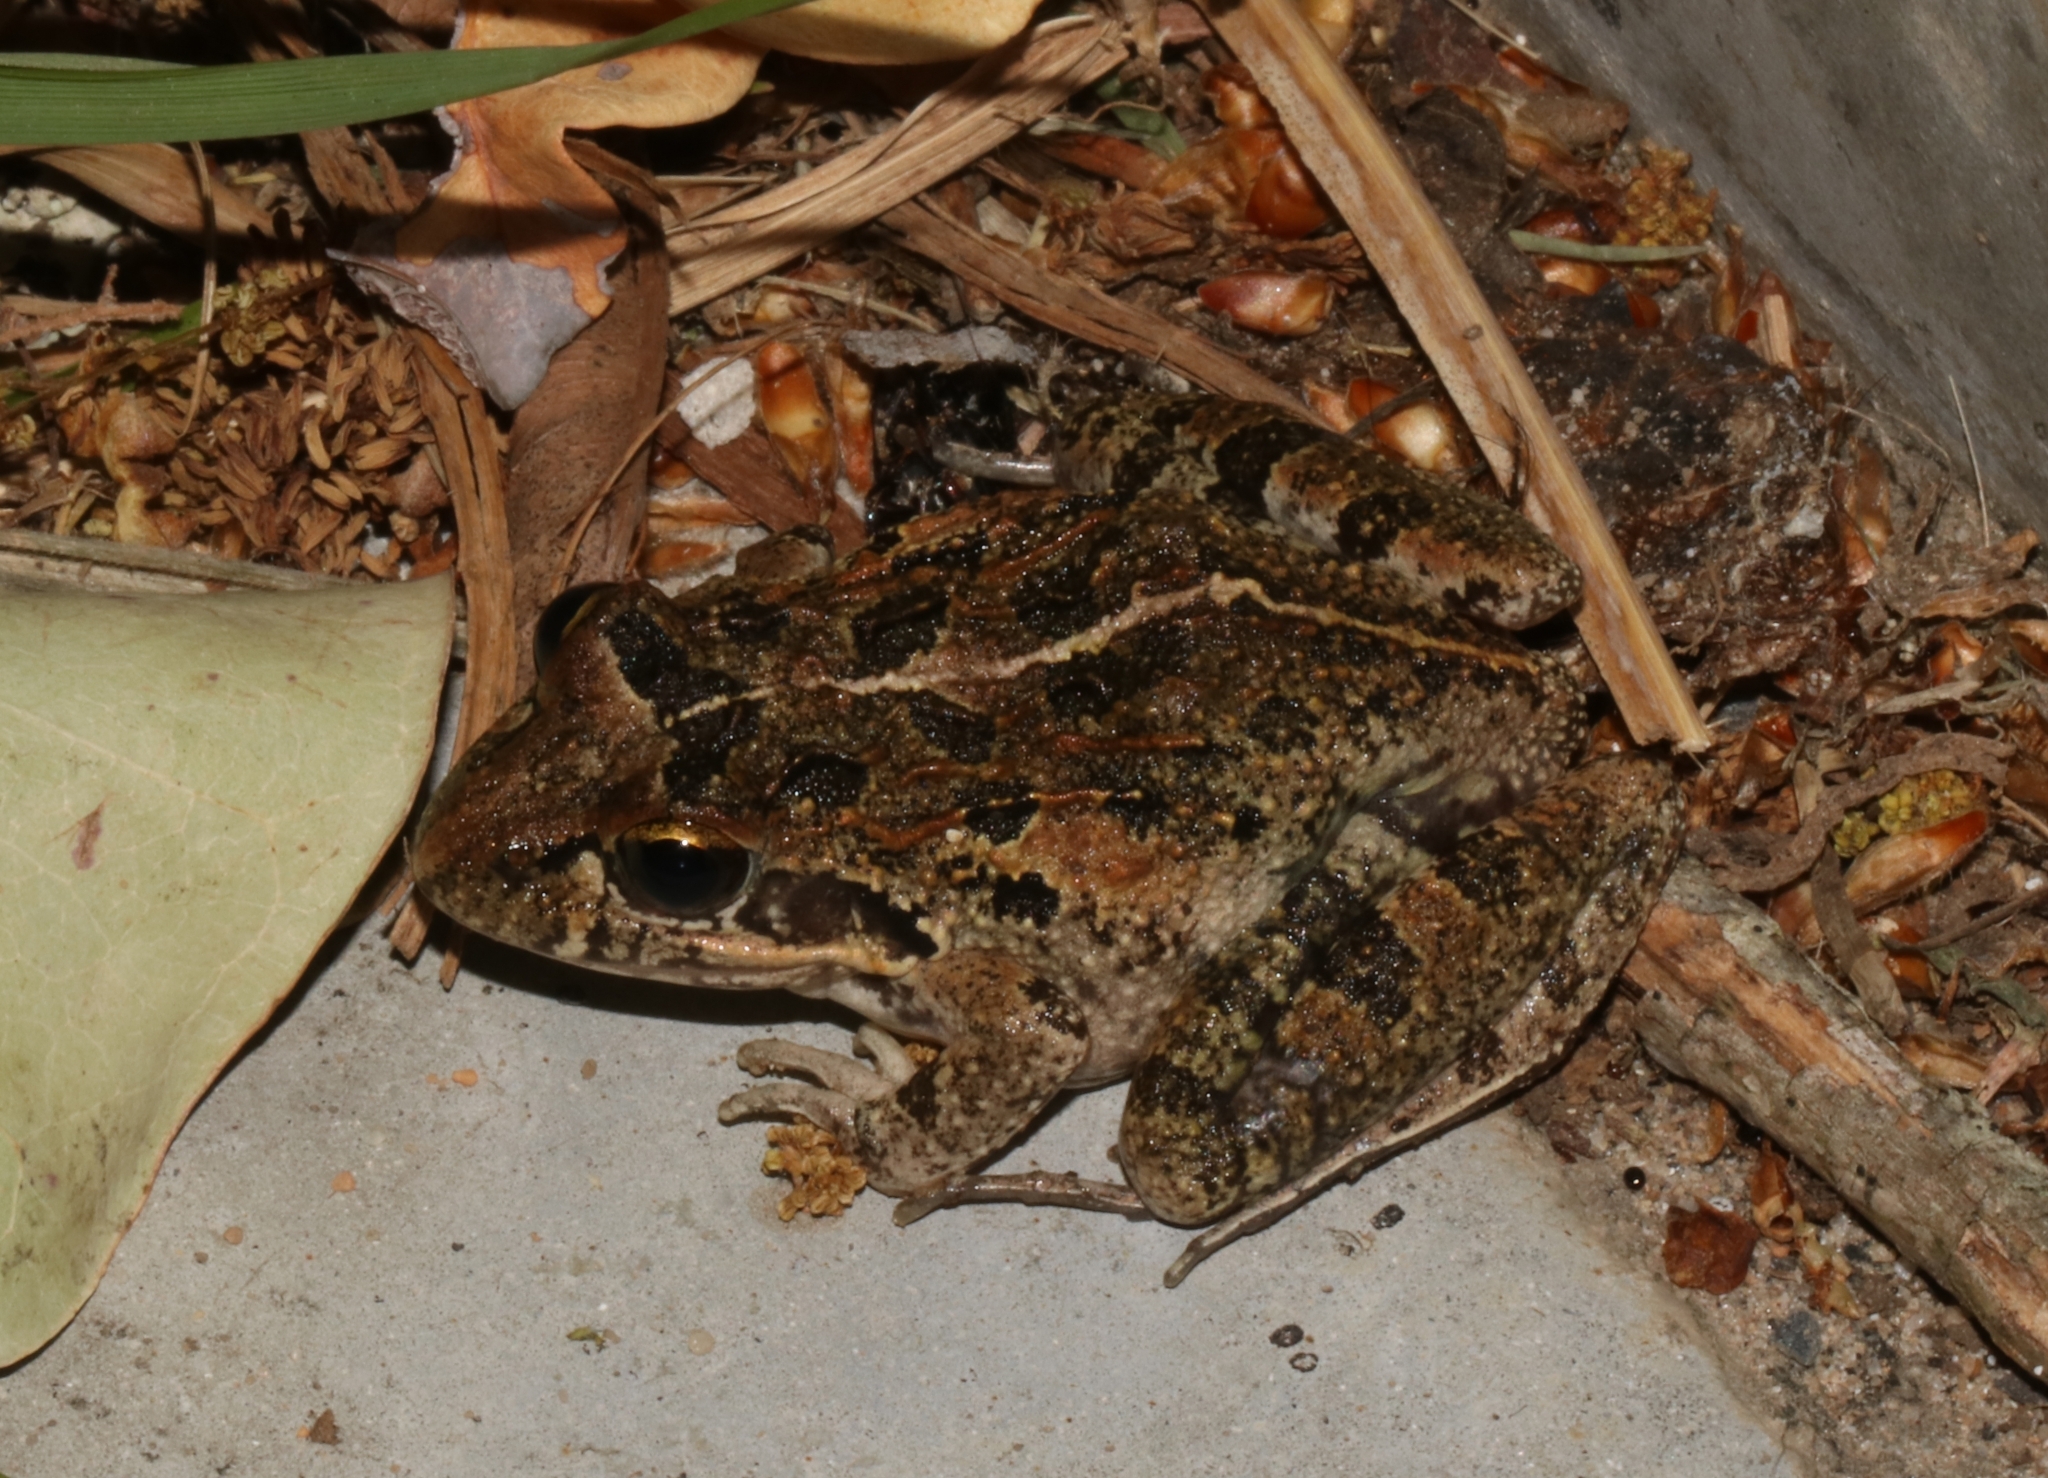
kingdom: Animalia
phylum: Chordata
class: Amphibia
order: Anura
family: Pyxicephalidae
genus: Strongylopus
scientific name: Strongylopus grayii
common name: Gray's stream frog
